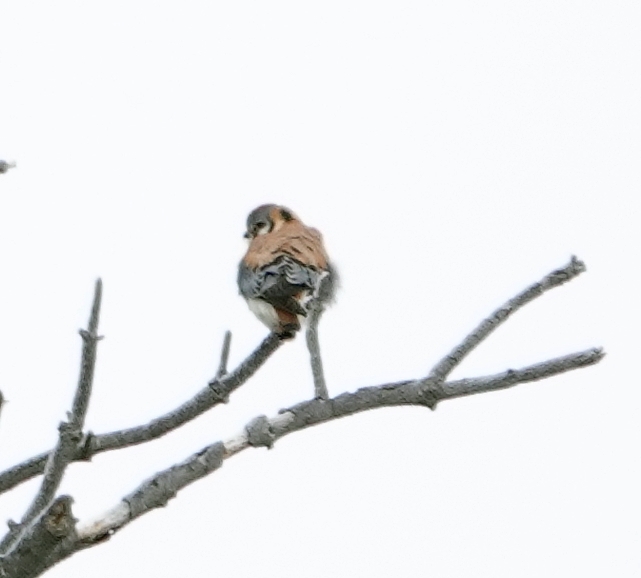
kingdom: Animalia
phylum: Chordata
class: Aves
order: Falconiformes
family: Falconidae
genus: Falco
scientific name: Falco sparverius
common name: American kestrel
